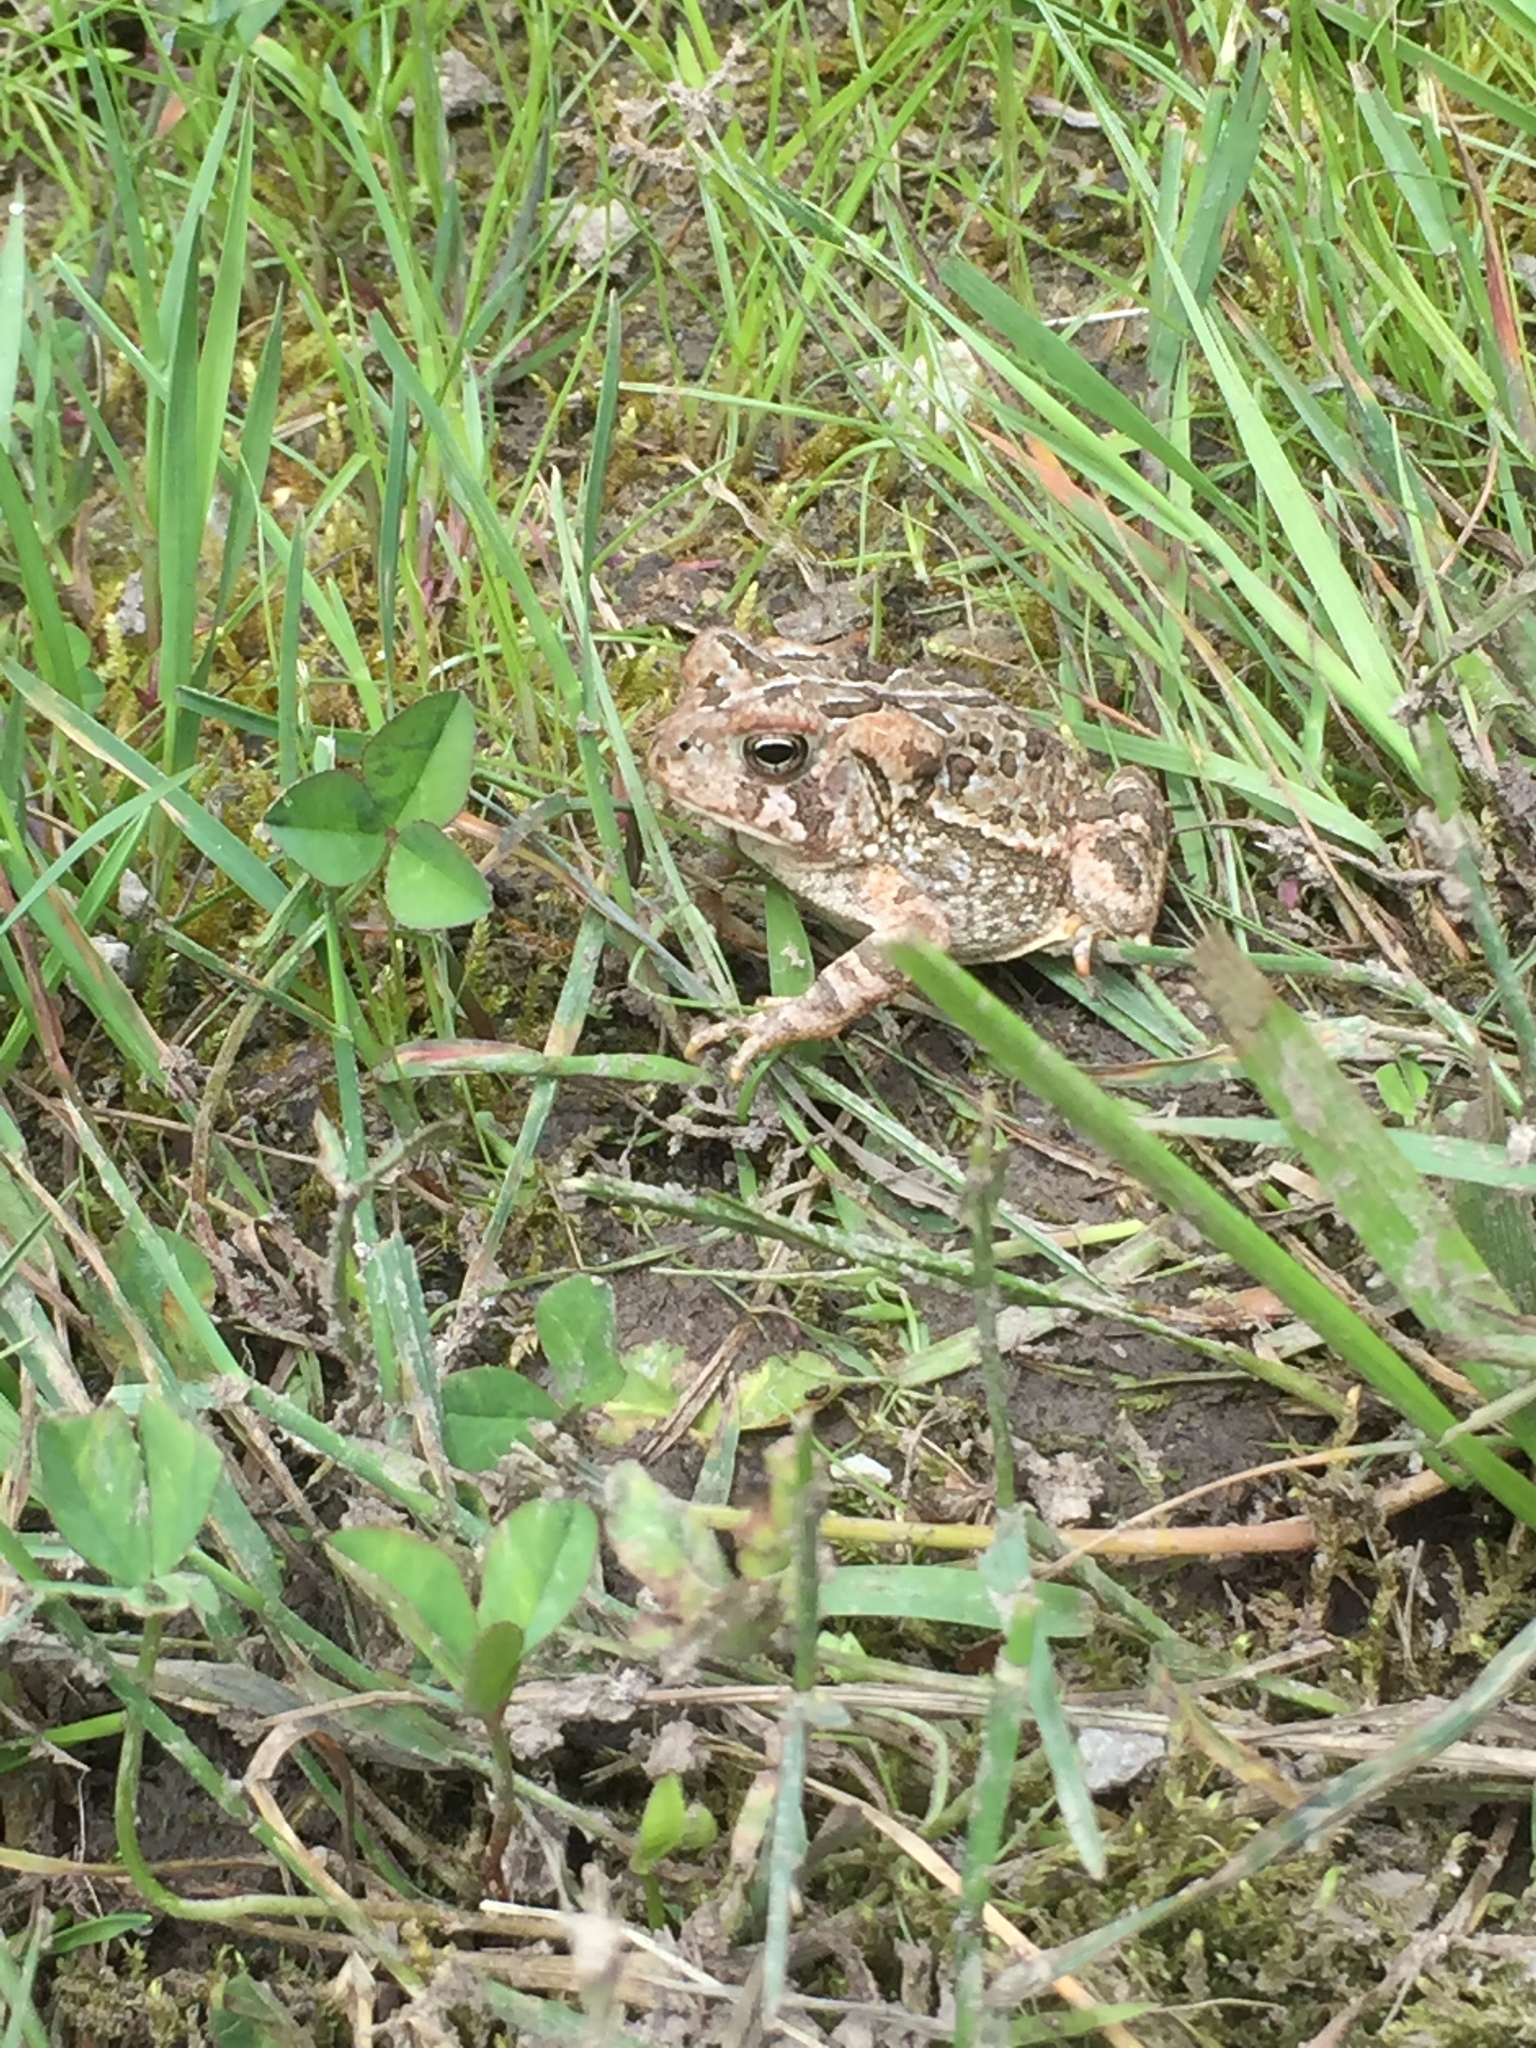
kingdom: Animalia
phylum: Chordata
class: Amphibia
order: Anura
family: Bufonidae
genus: Anaxyrus
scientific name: Anaxyrus fowleri
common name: Fowler's toad
